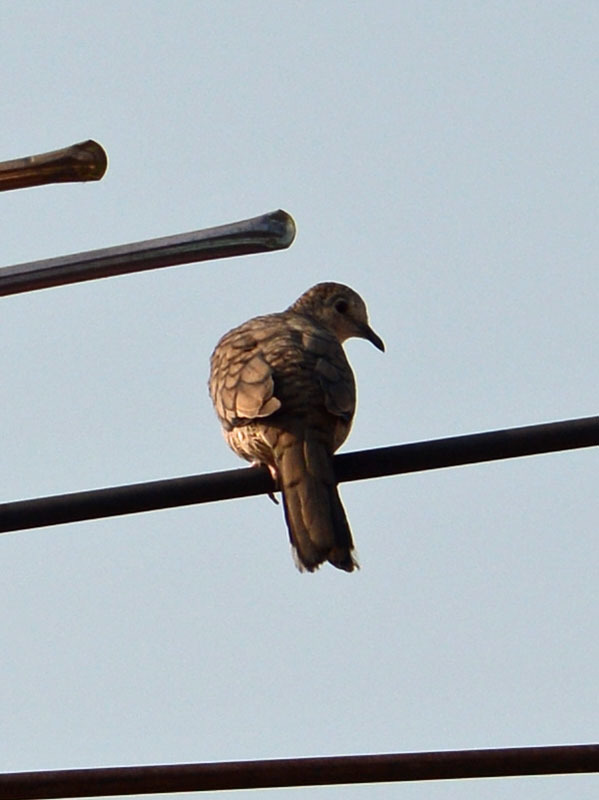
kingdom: Animalia
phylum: Chordata
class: Aves
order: Columbiformes
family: Columbidae
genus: Columbina
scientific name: Columbina inca
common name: Inca dove
